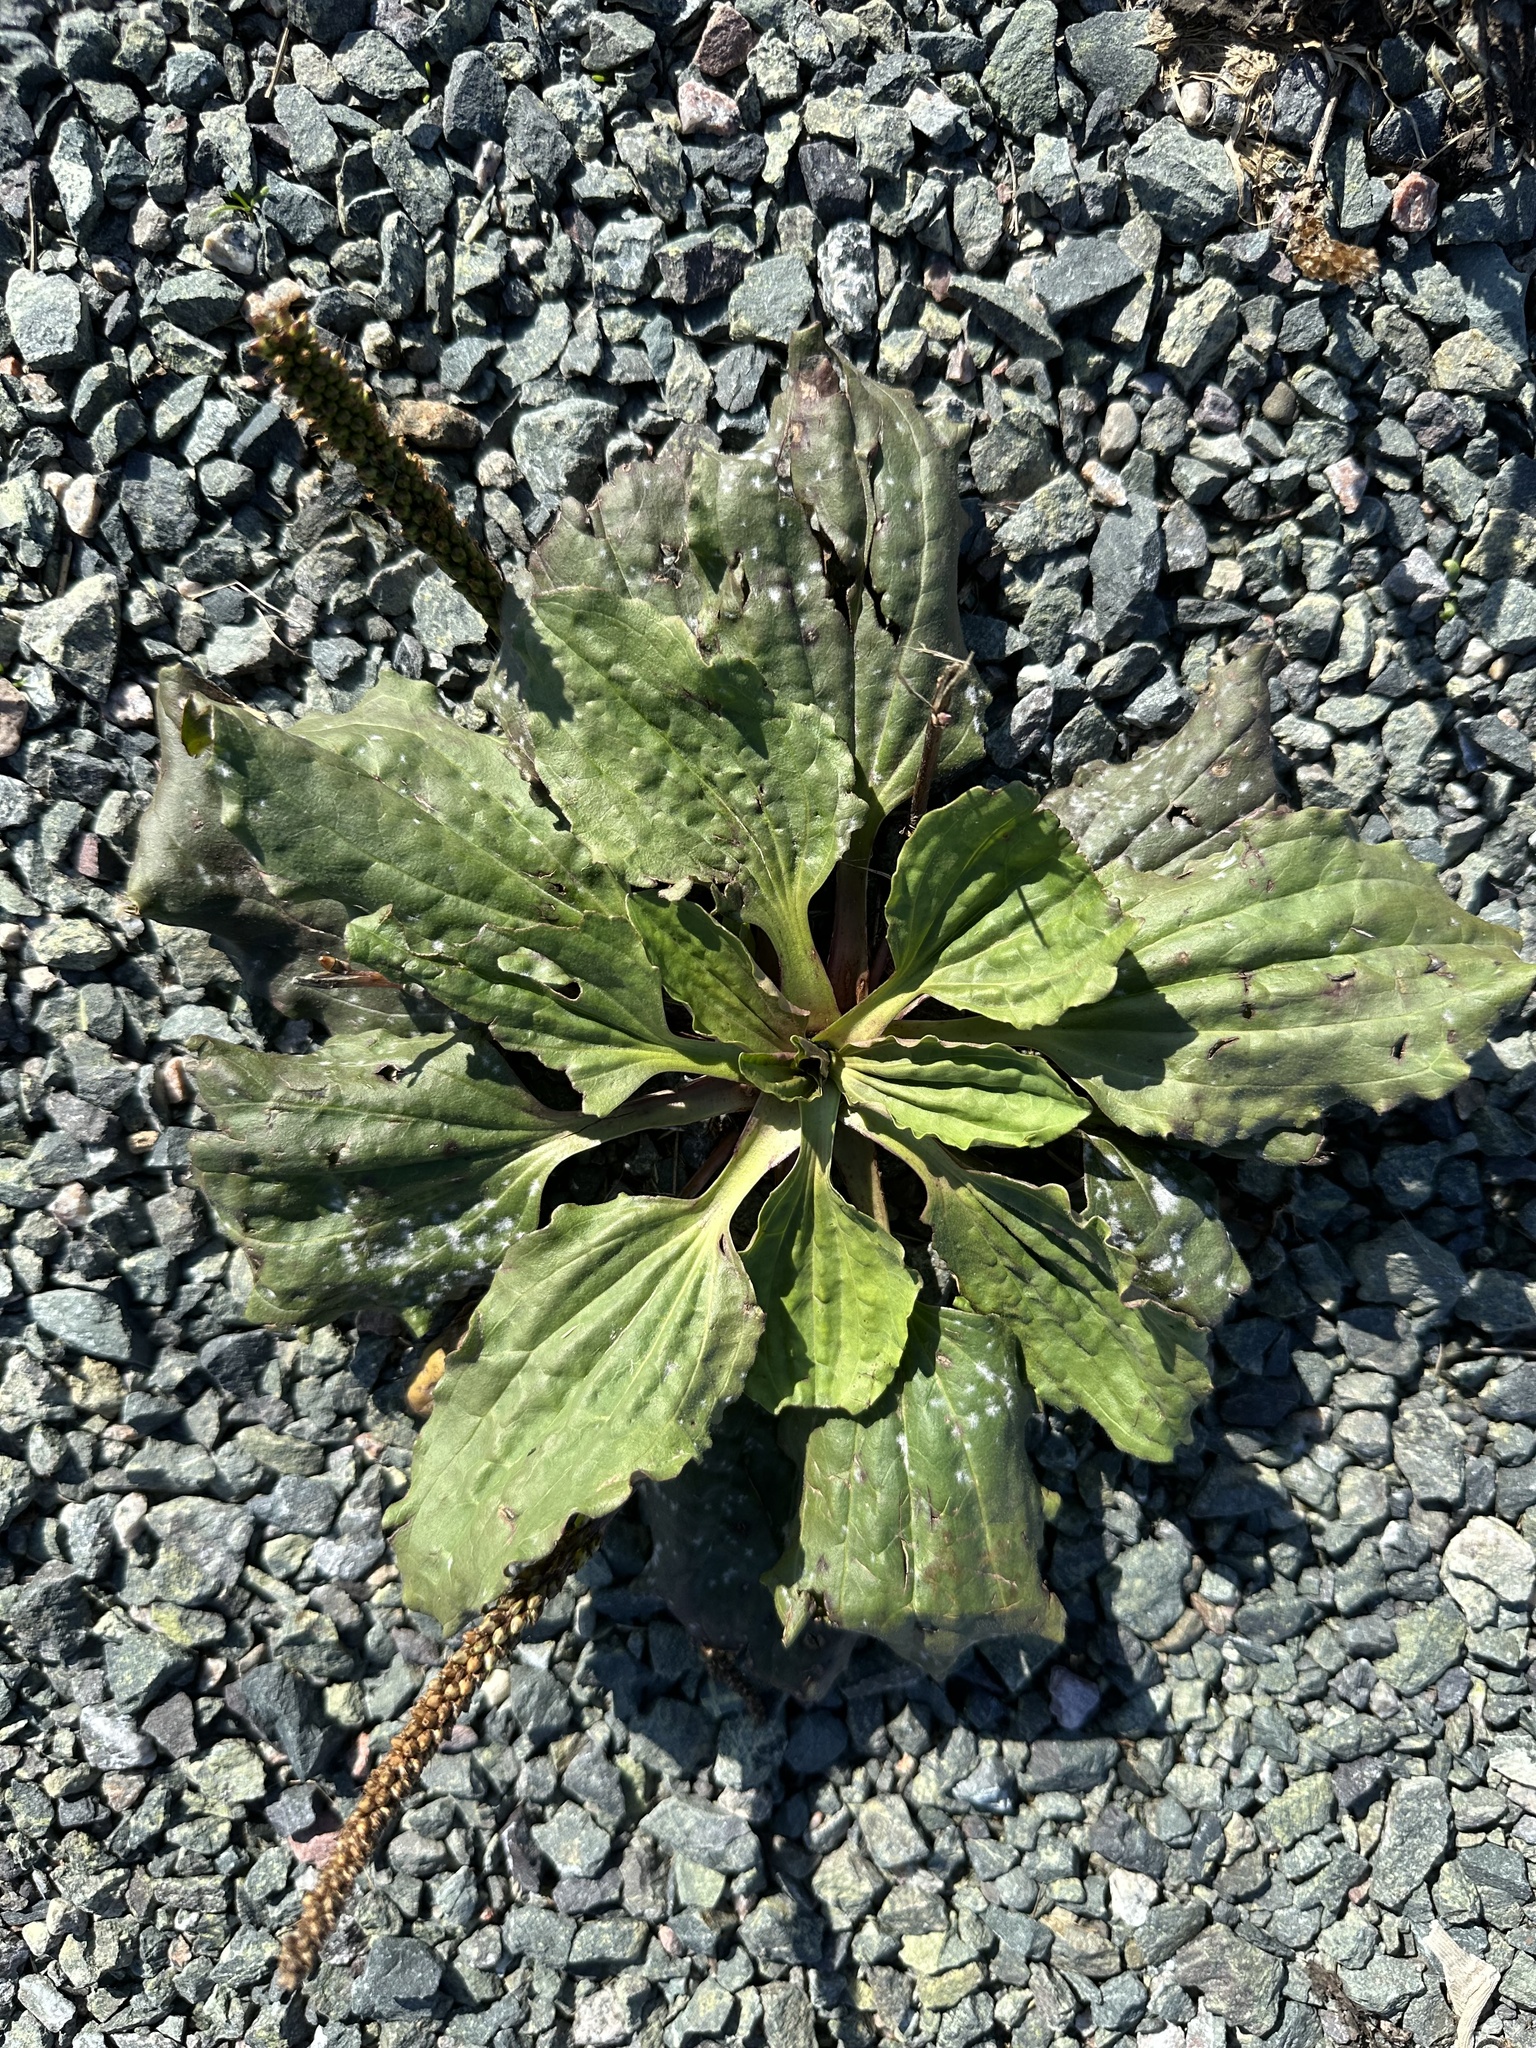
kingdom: Plantae
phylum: Tracheophyta
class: Magnoliopsida
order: Lamiales
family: Plantaginaceae
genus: Plantago
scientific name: Plantago major
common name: Common plantain
